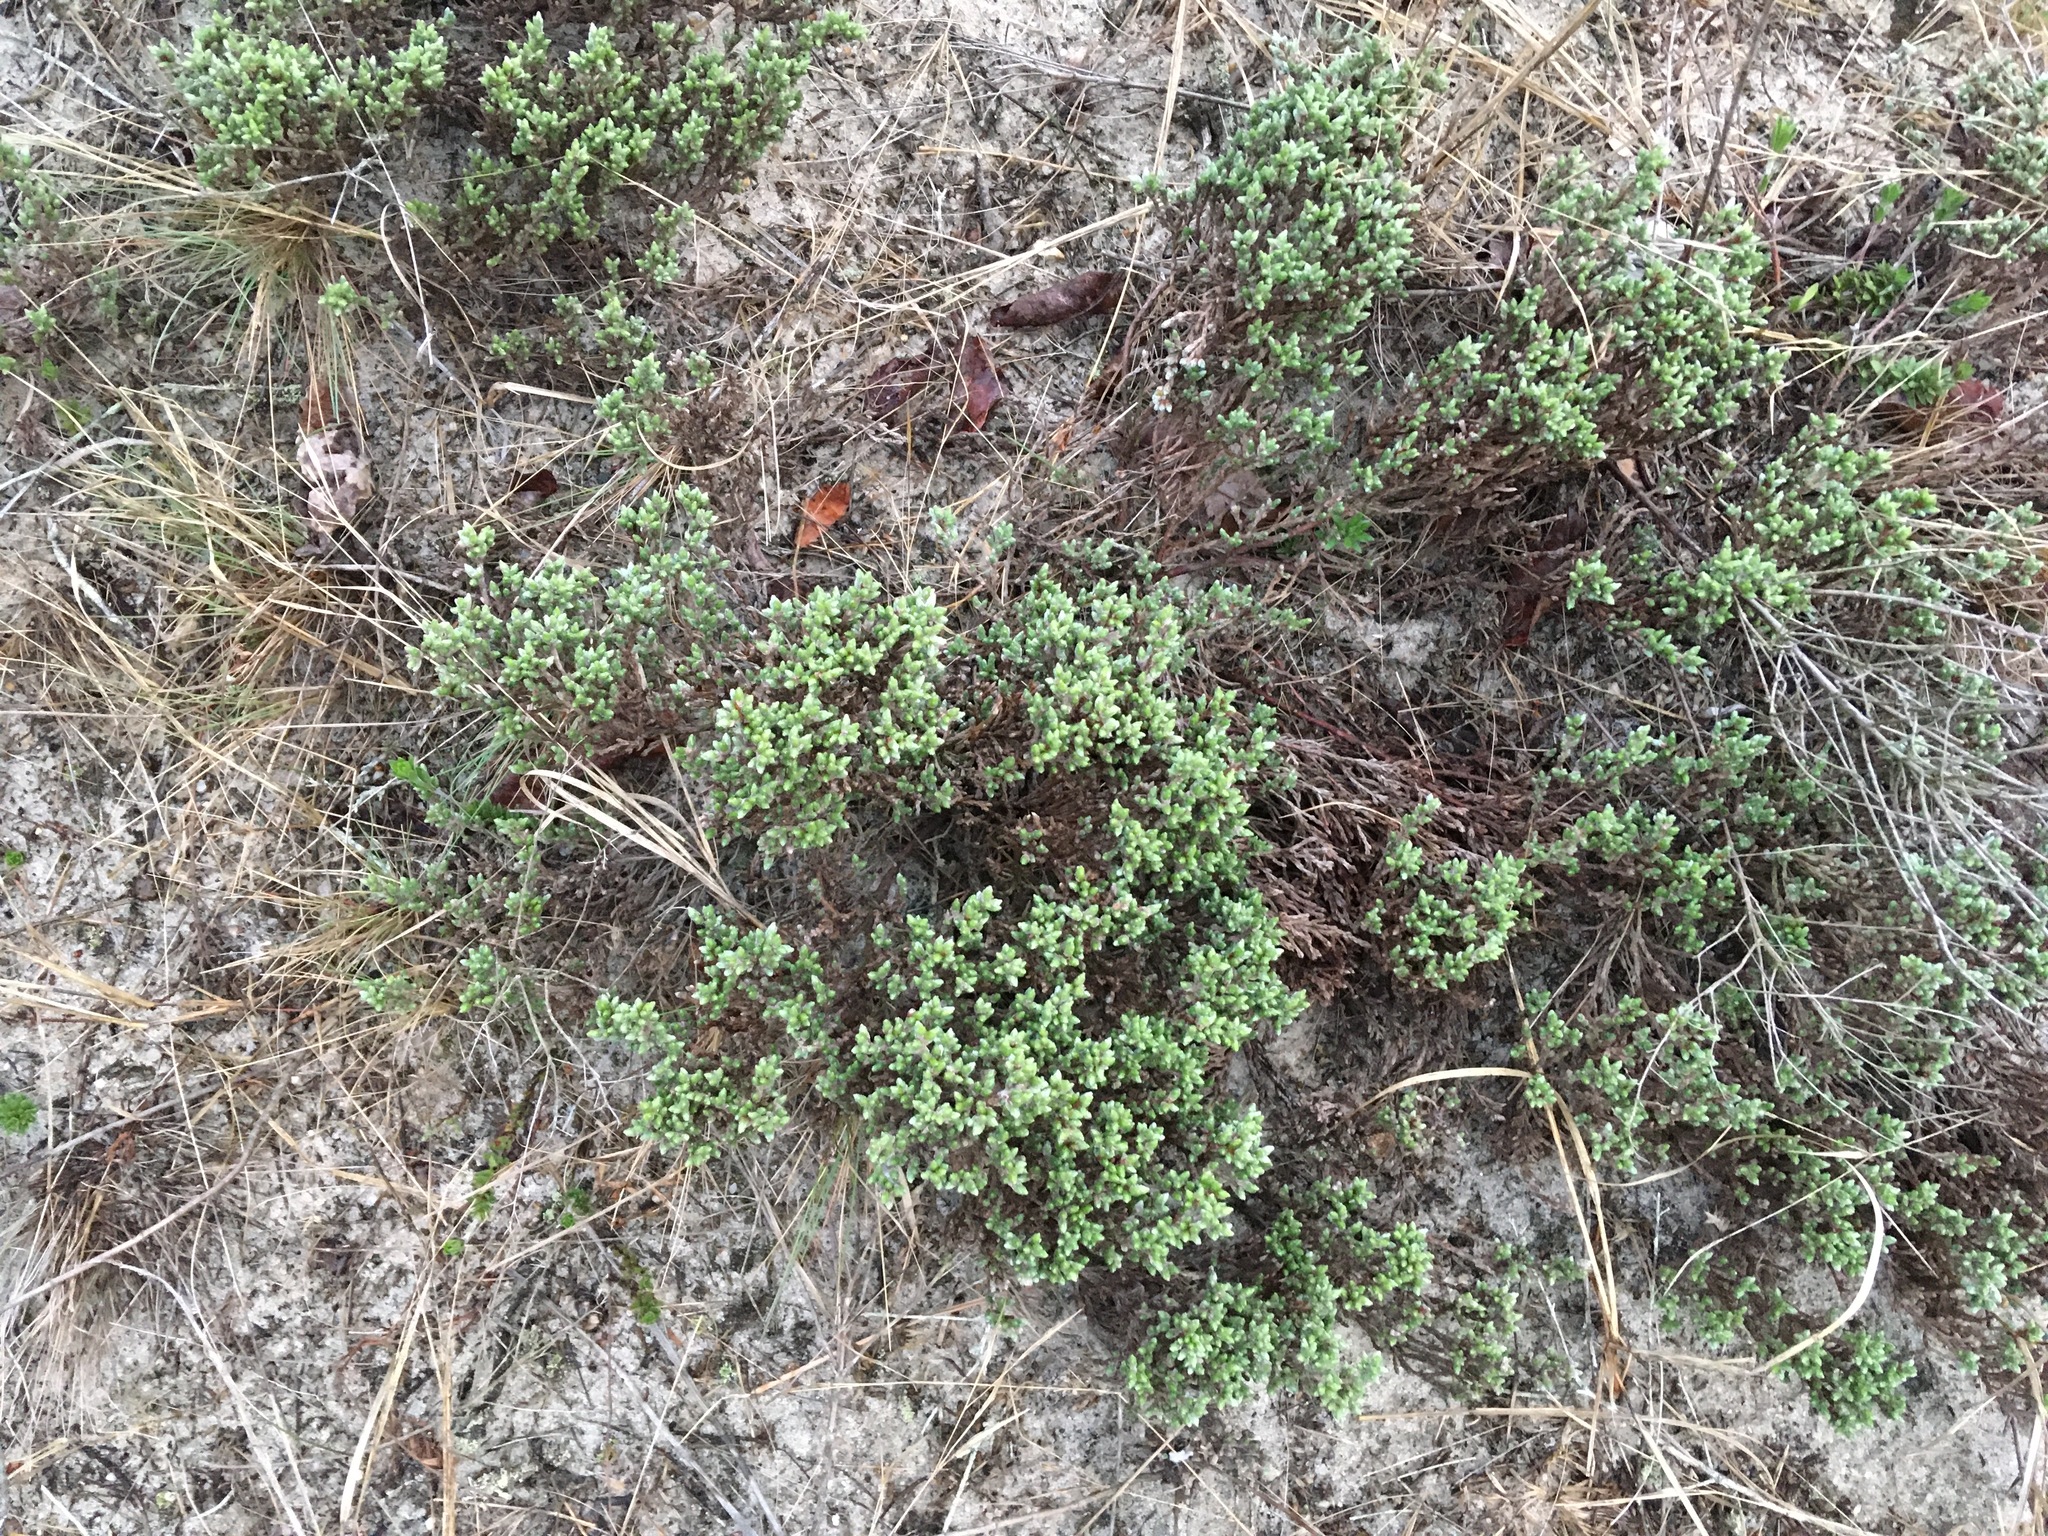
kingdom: Plantae
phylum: Tracheophyta
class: Magnoliopsida
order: Malvales
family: Cistaceae
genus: Hudsonia
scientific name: Hudsonia tomentosa
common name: Beach-heath
